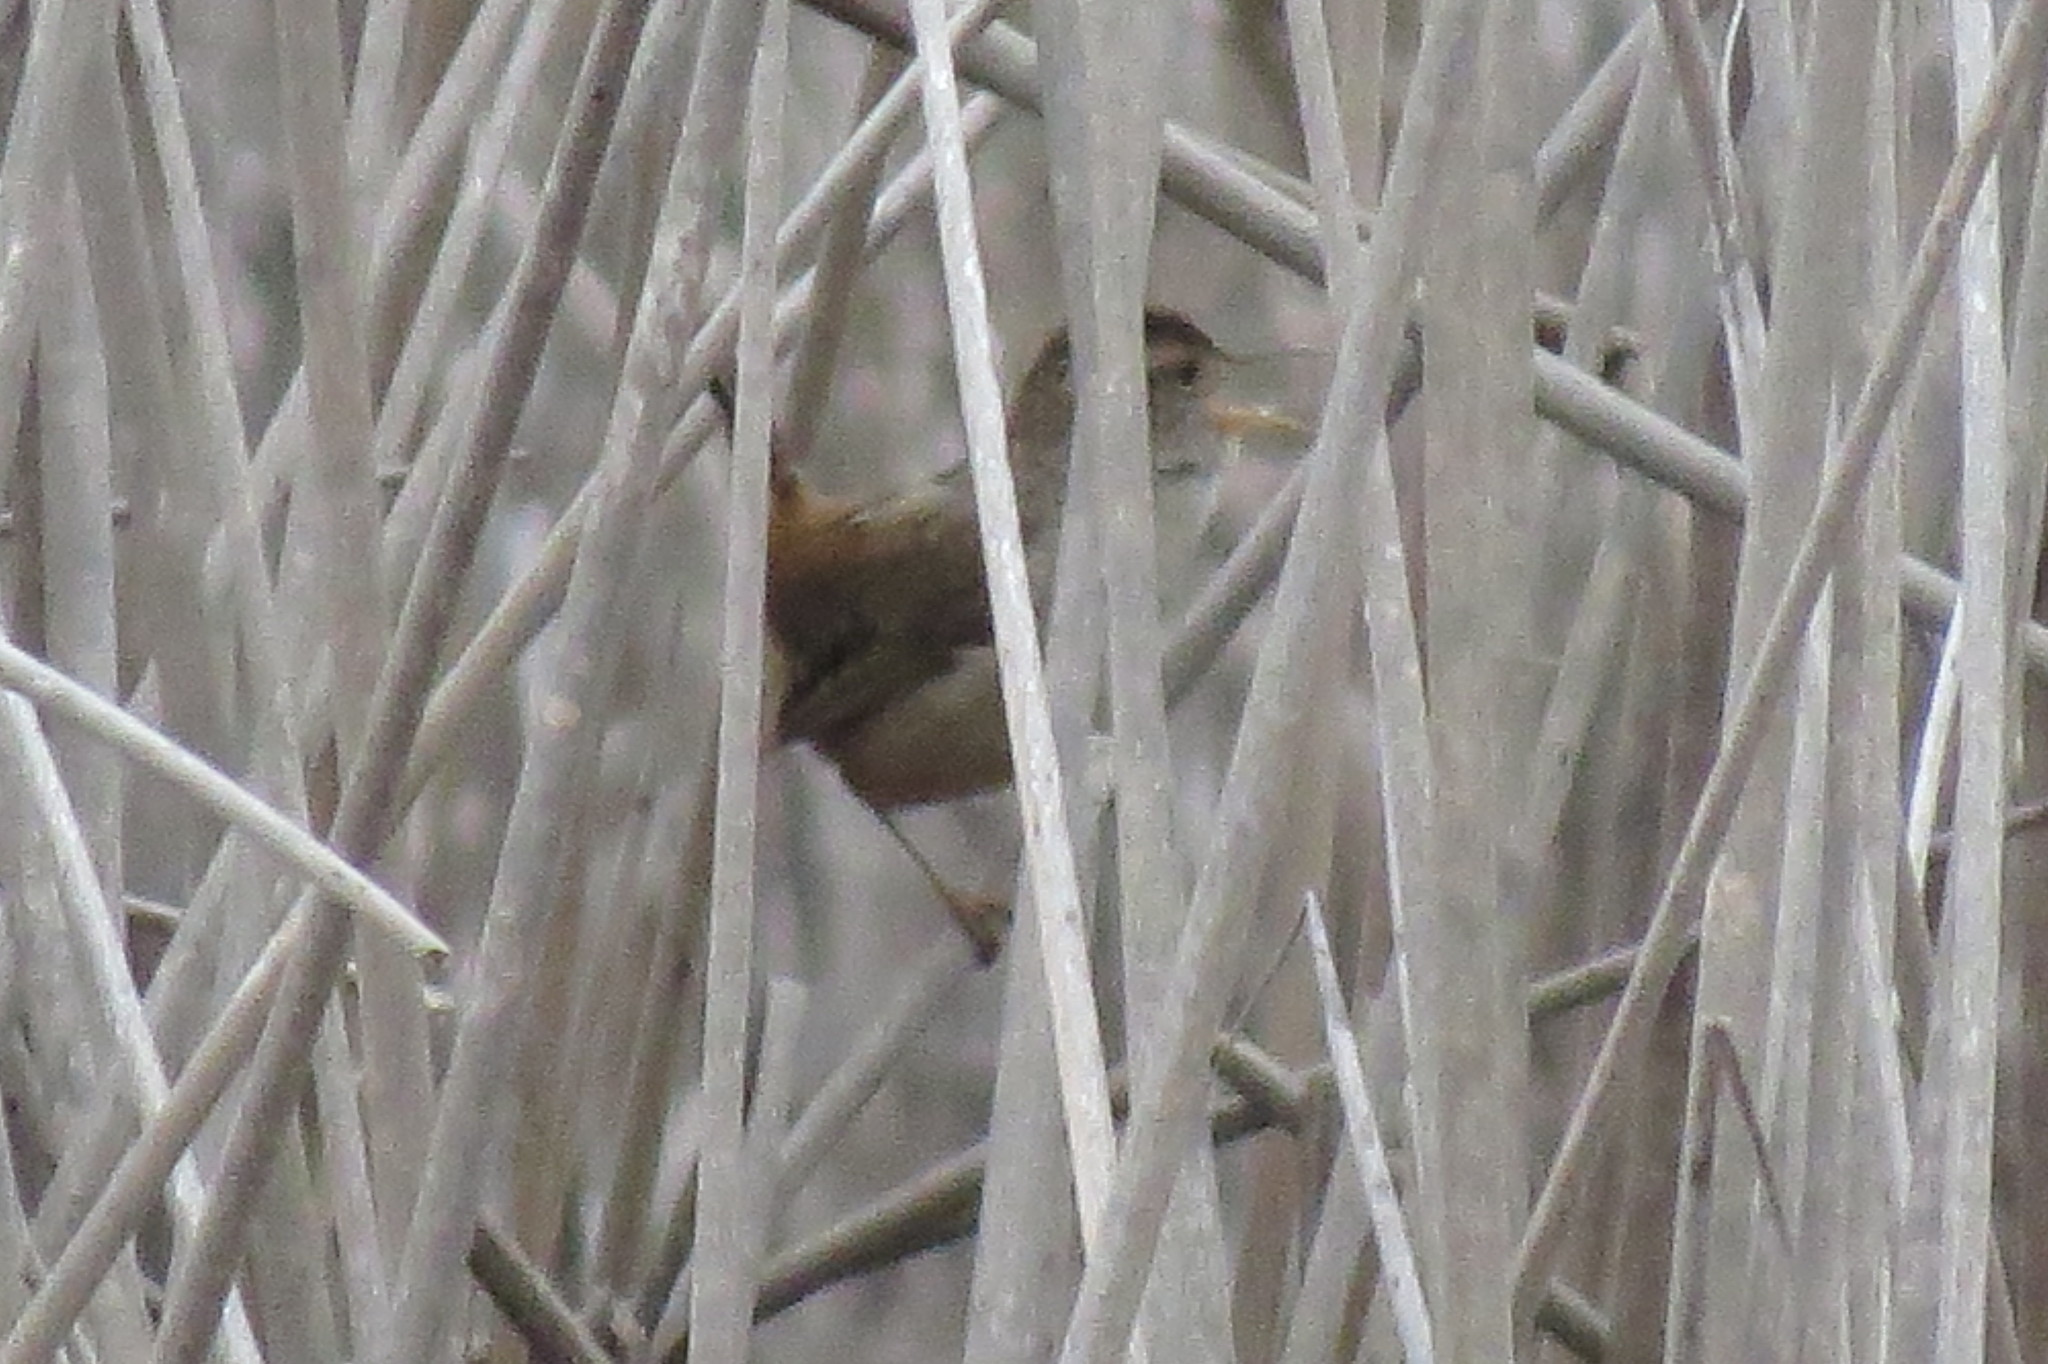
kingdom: Animalia
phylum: Chordata
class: Aves
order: Passeriformes
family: Troglodytidae
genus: Cistothorus
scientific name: Cistothorus palustris
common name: Marsh wren
